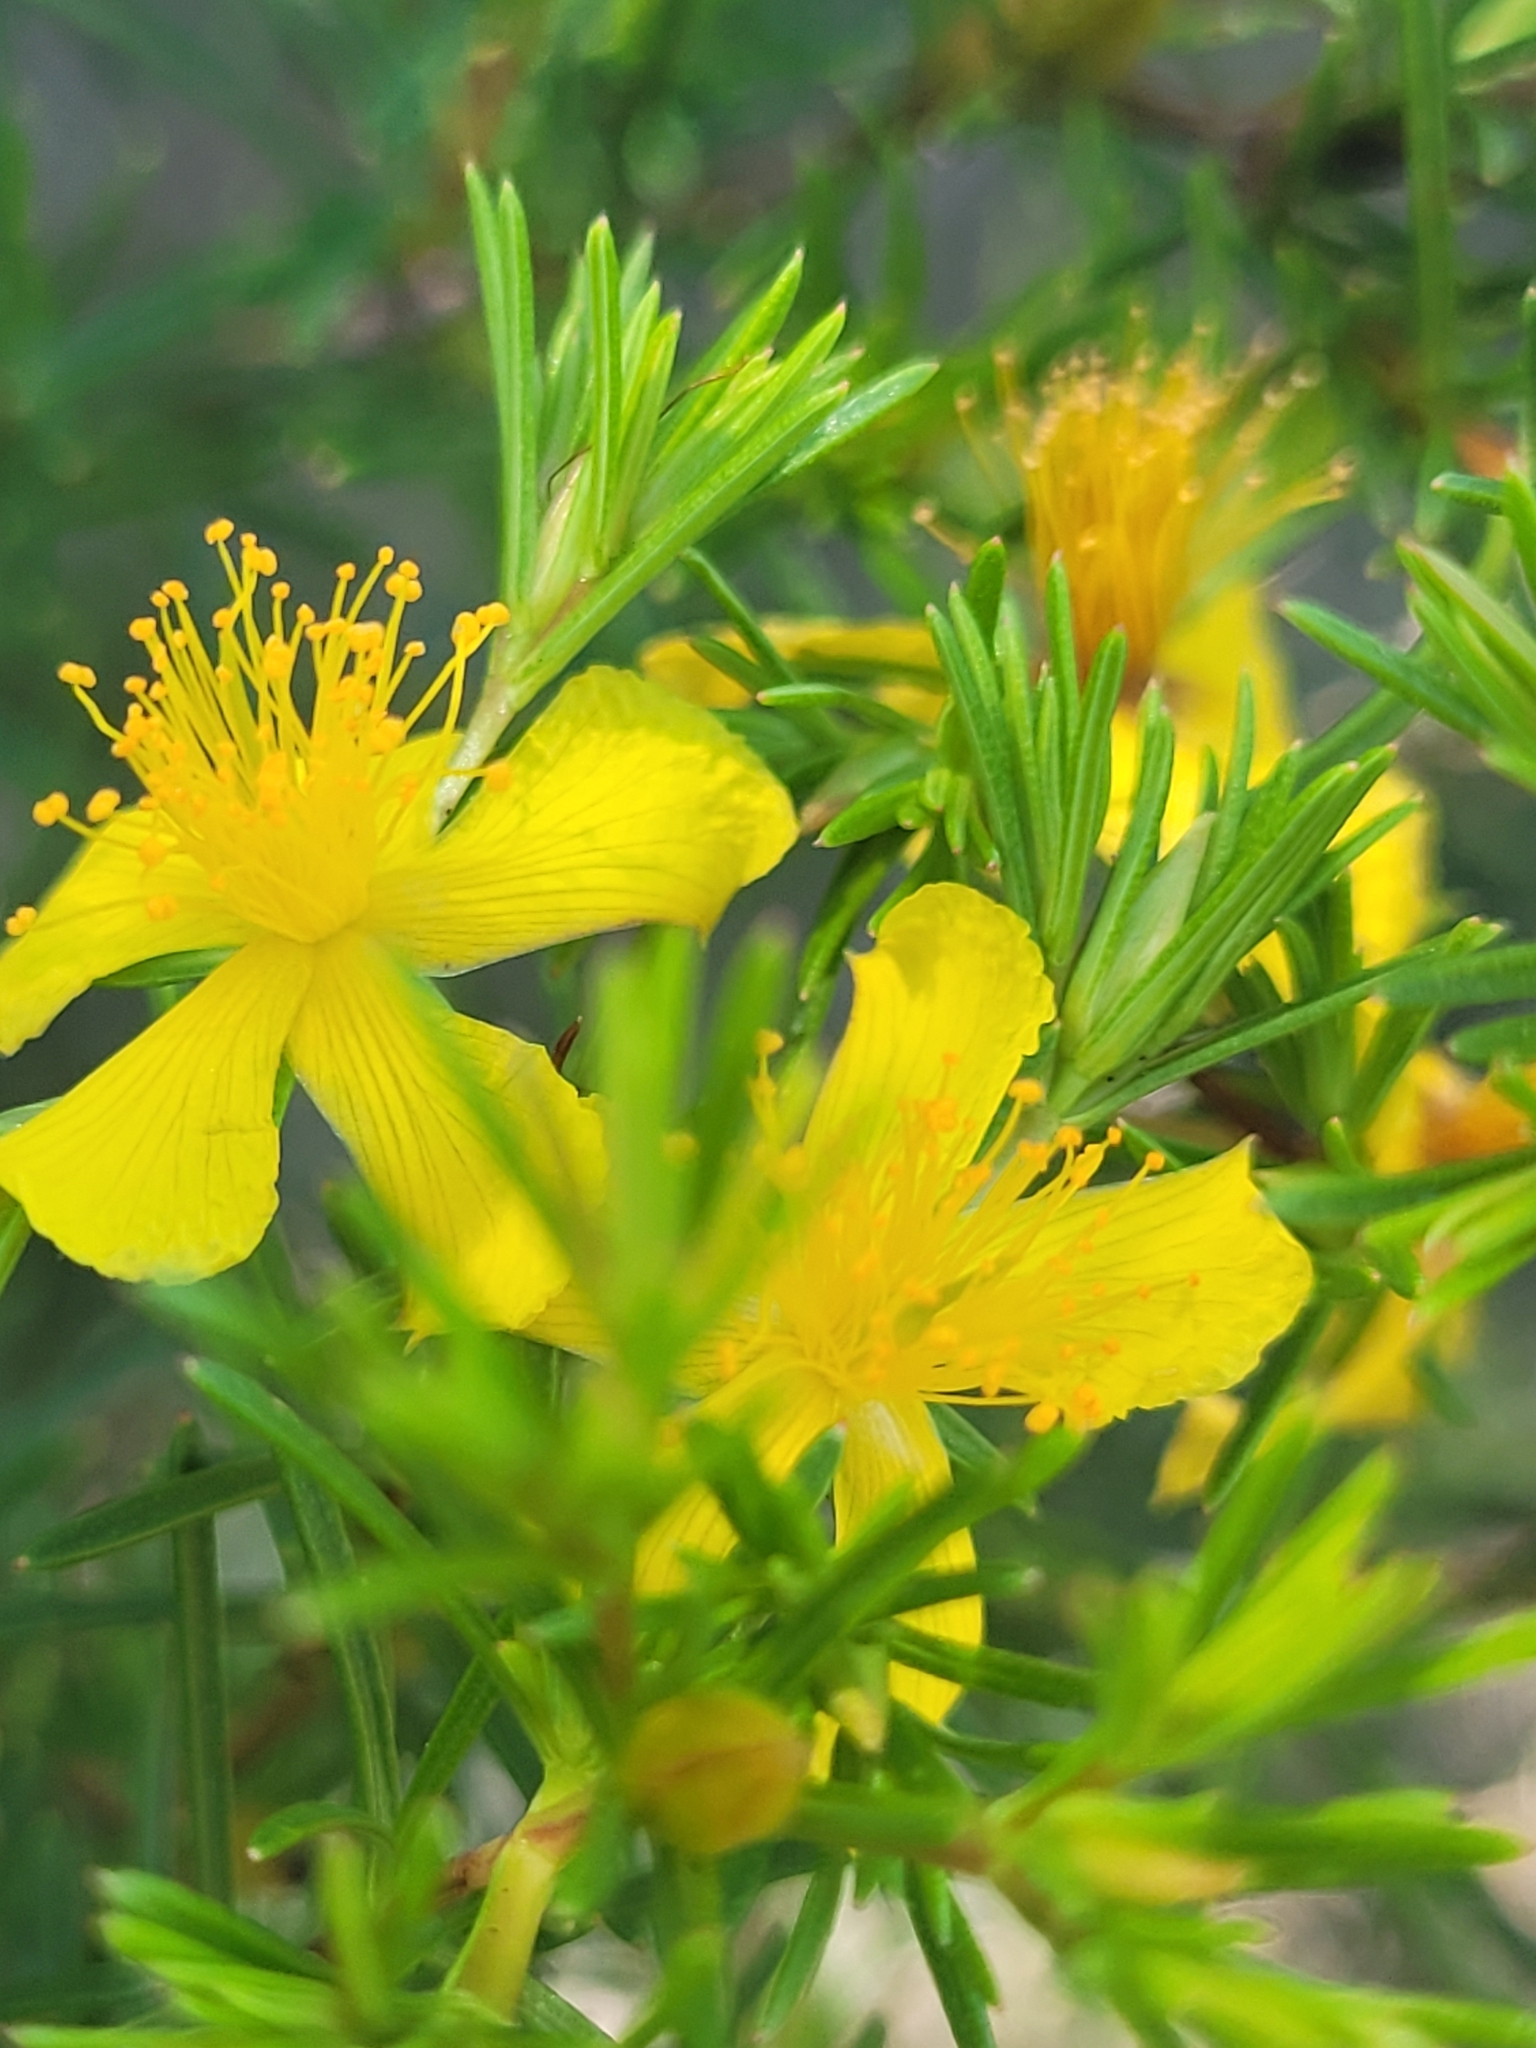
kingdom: Plantae
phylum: Tracheophyta
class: Magnoliopsida
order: Malpighiales
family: Hypericaceae
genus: Hypericum
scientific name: Hypericum fasciculatum
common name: Peelbark st. john's wort
